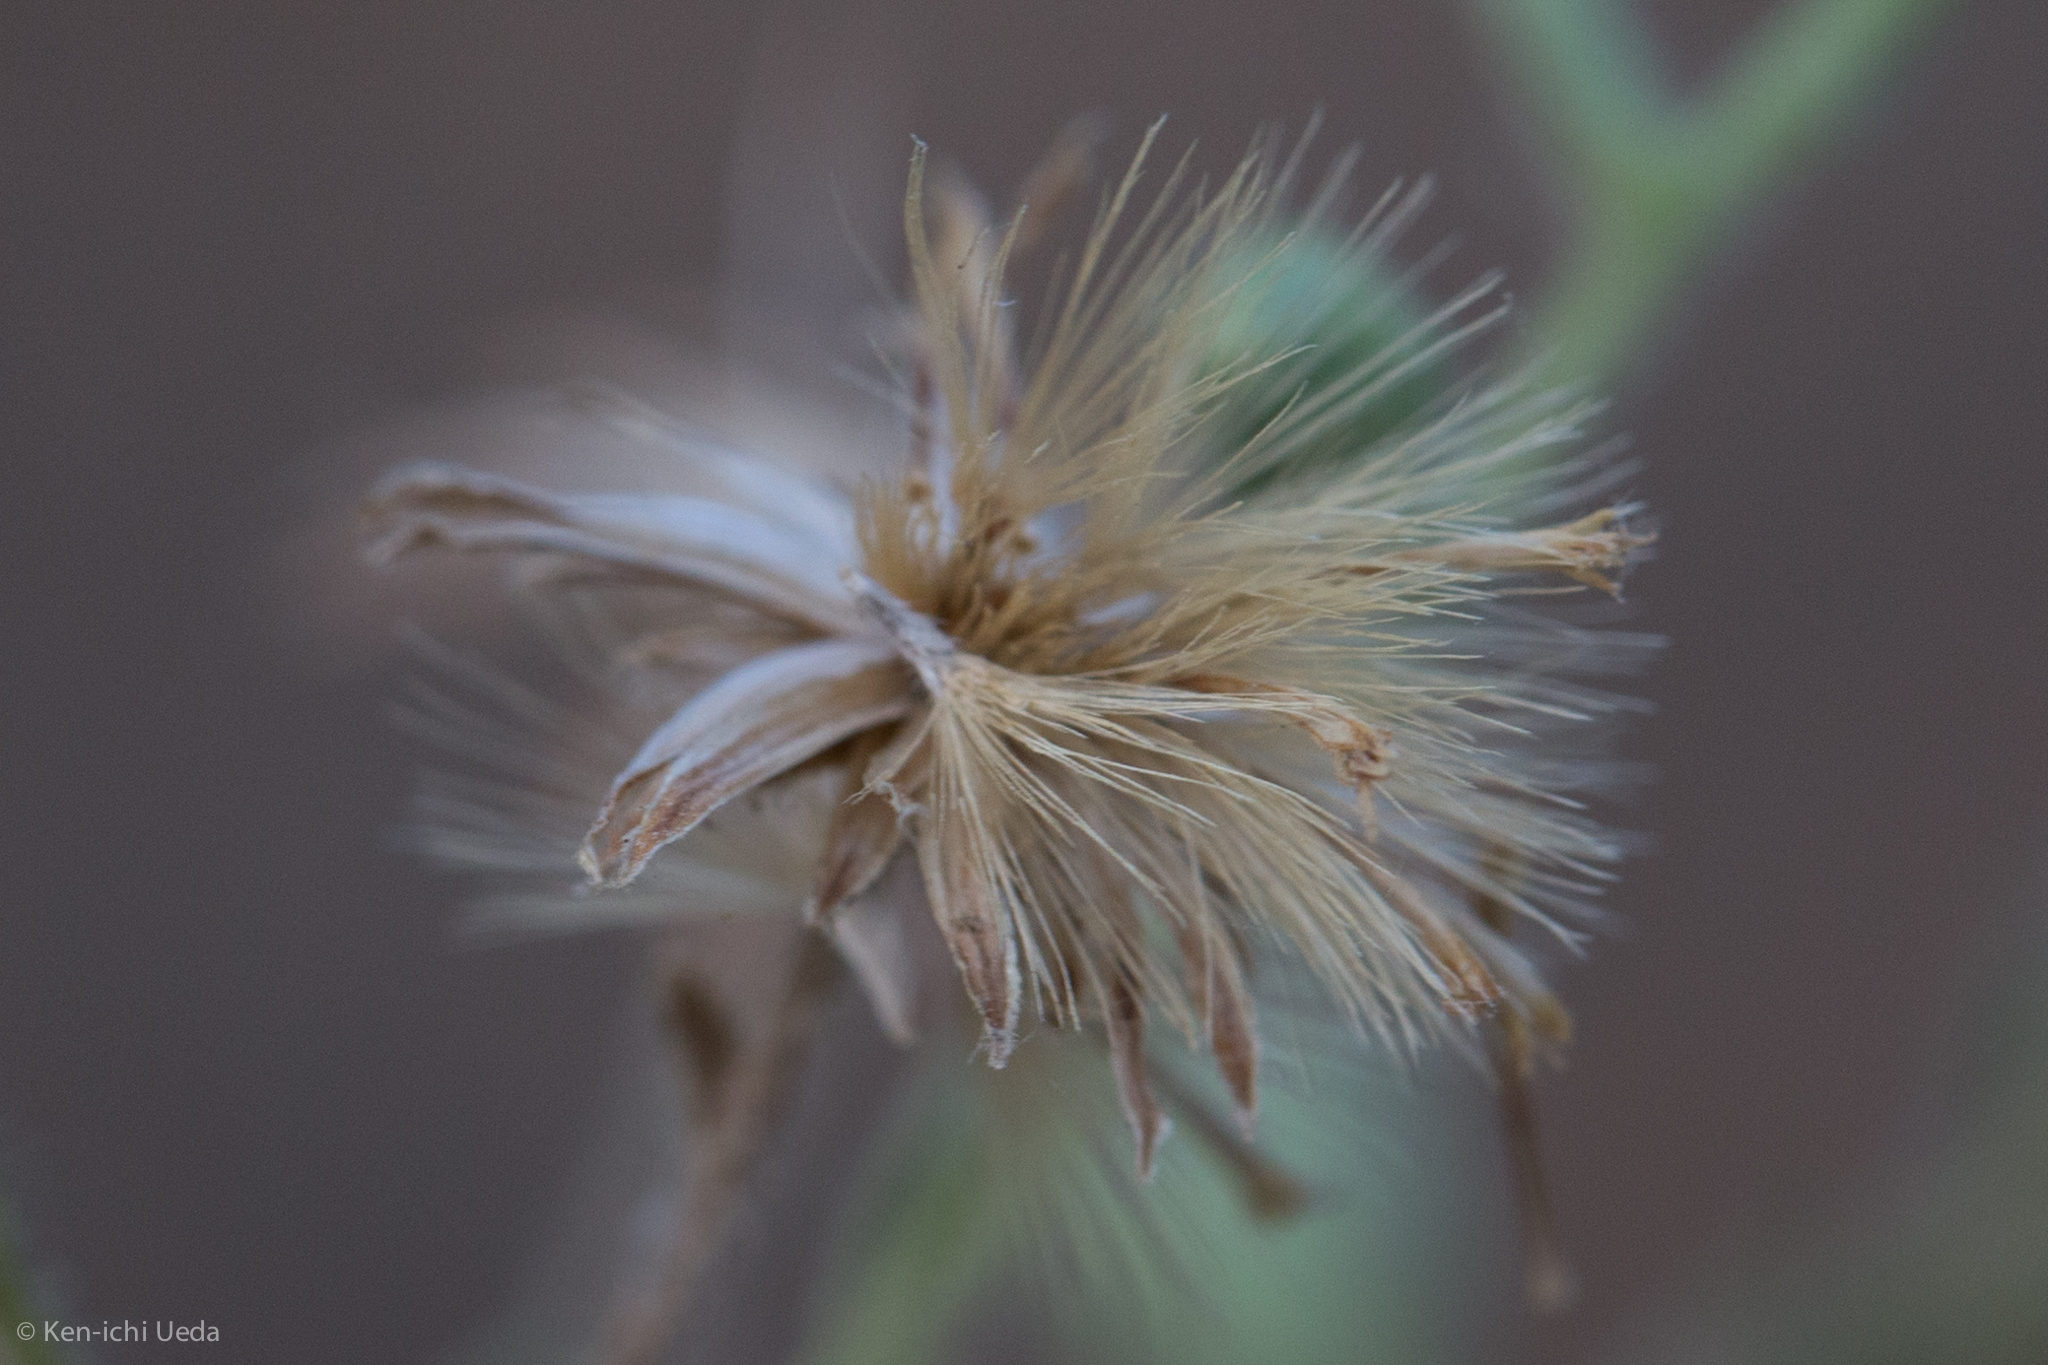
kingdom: Plantae
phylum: Tracheophyta
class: Magnoliopsida
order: Asterales
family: Asteraceae
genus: Heterotheca
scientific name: Heterotheca scaberrima
